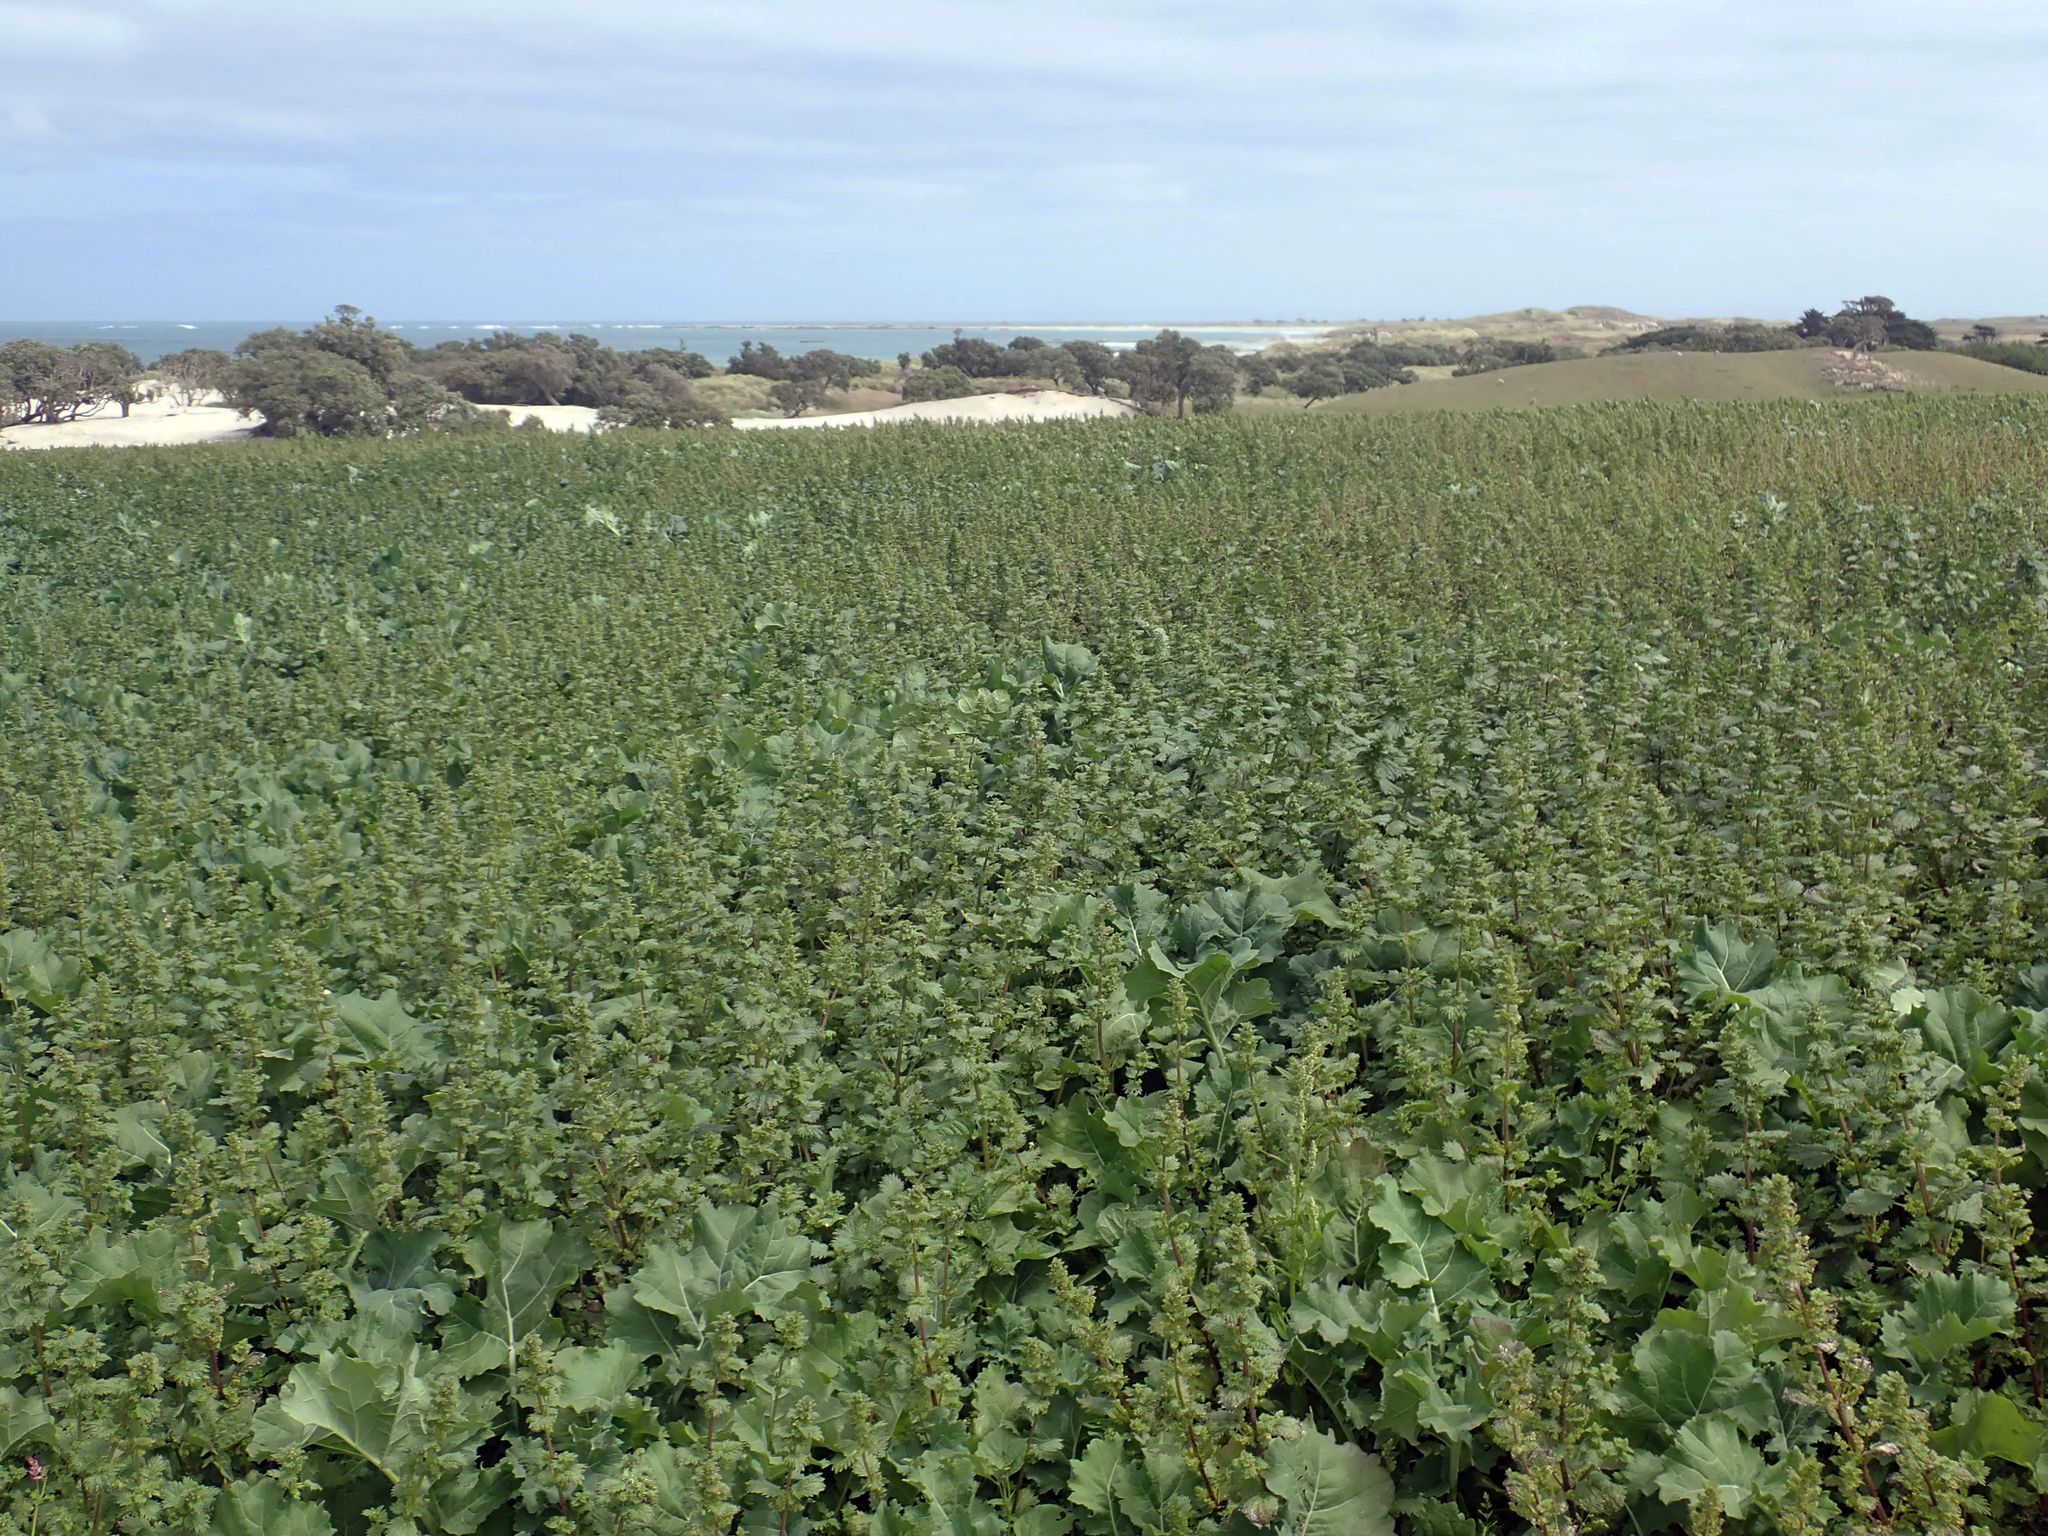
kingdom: Plantae
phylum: Tracheophyta
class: Magnoliopsida
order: Rosales
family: Urticaceae
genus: Urtica
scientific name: Urtica urens
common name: Dwarf nettle
